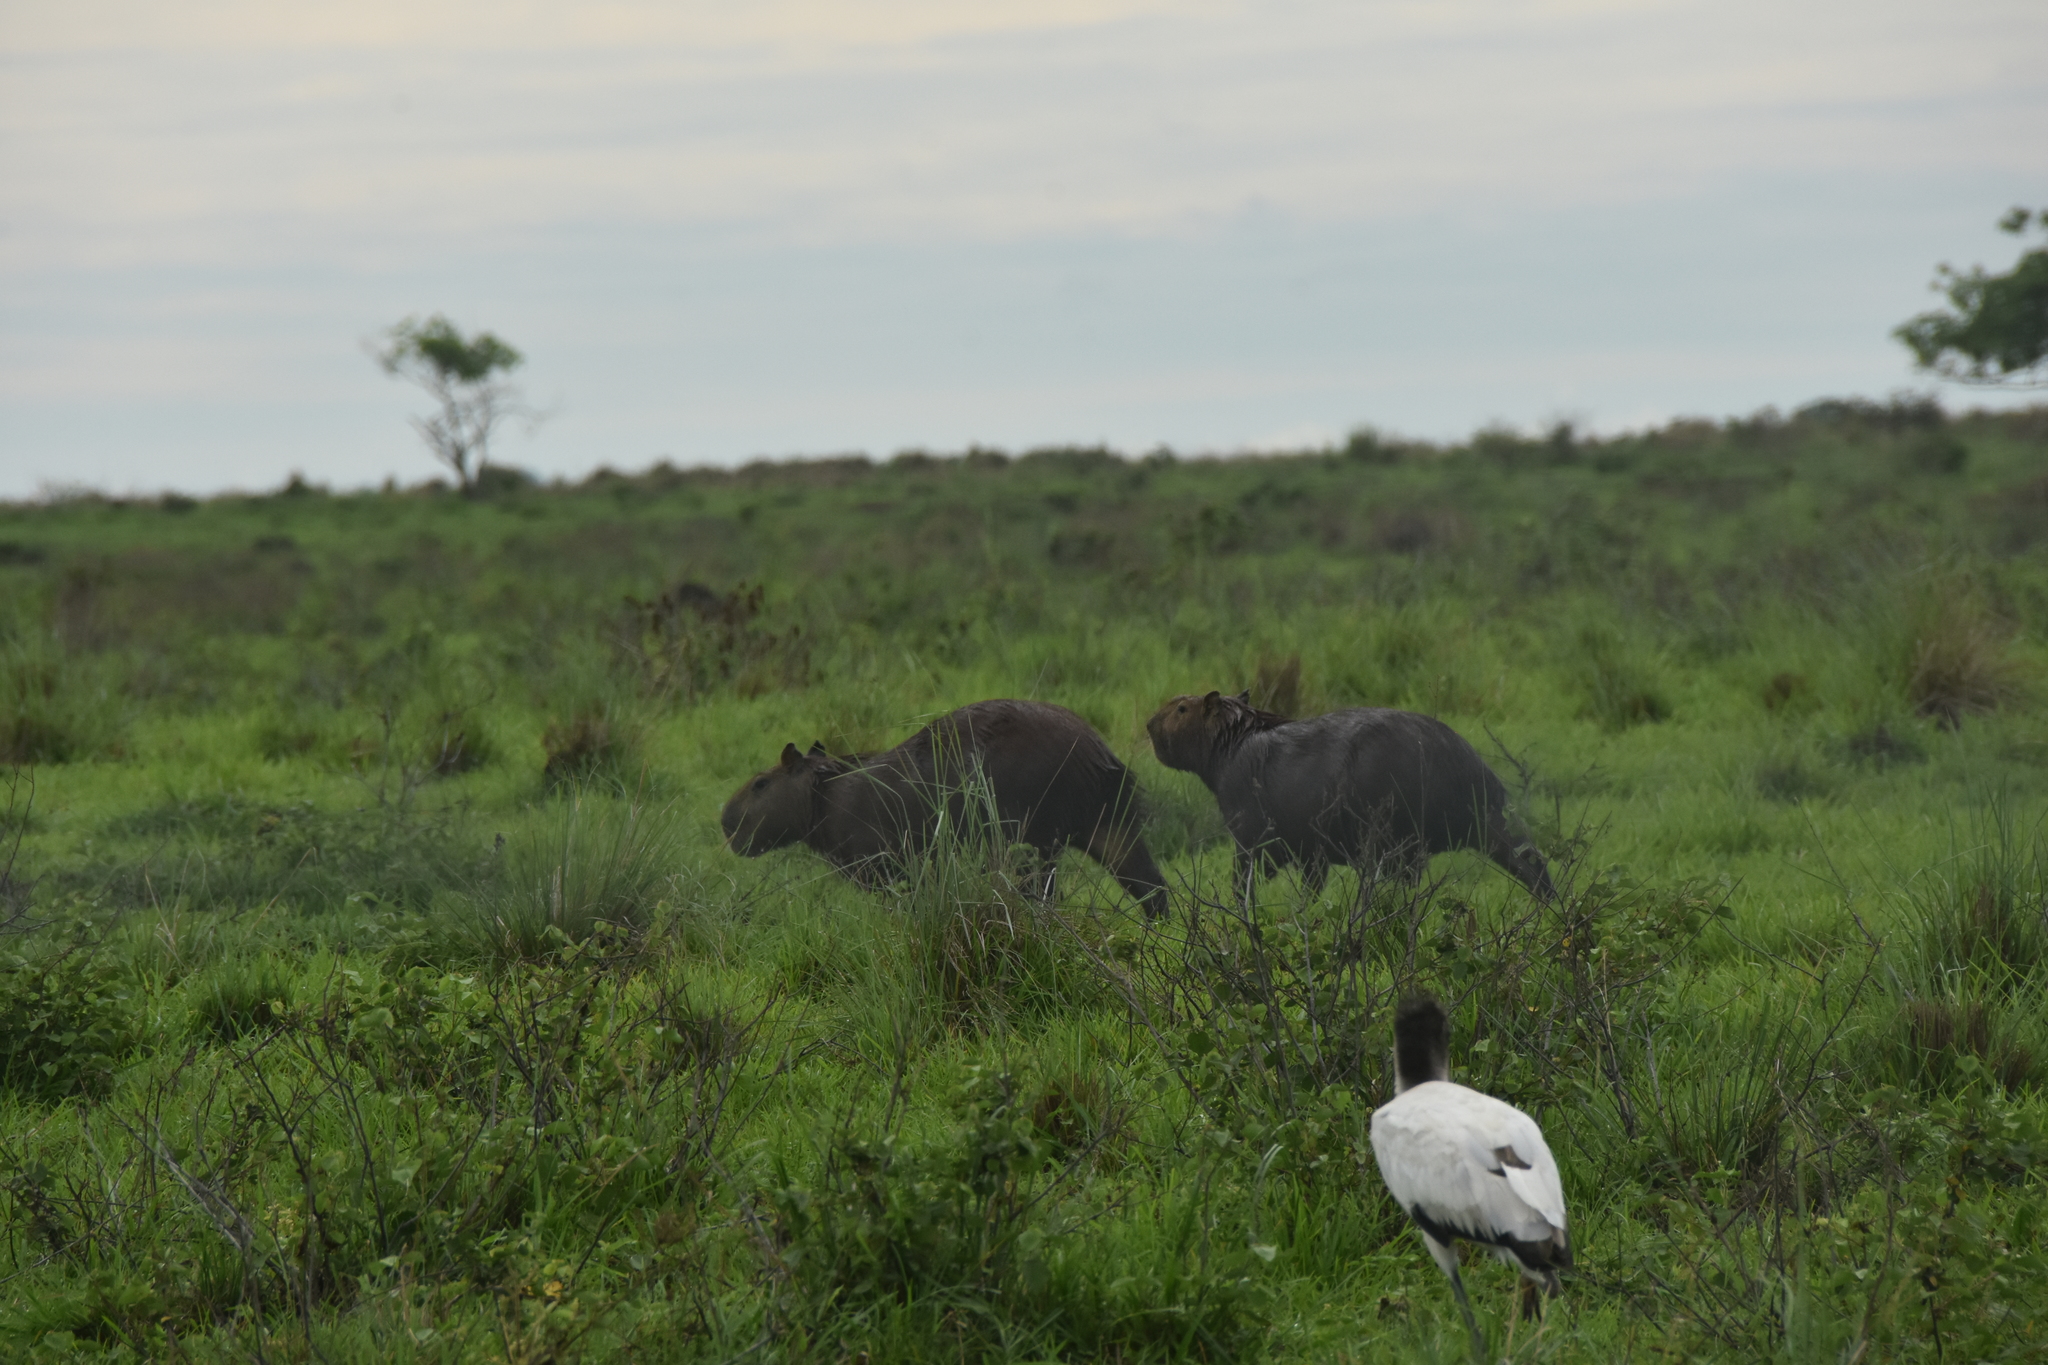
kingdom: Animalia
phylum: Chordata
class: Mammalia
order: Rodentia
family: Caviidae
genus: Hydrochoerus
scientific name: Hydrochoerus hydrochaeris
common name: Capybara
